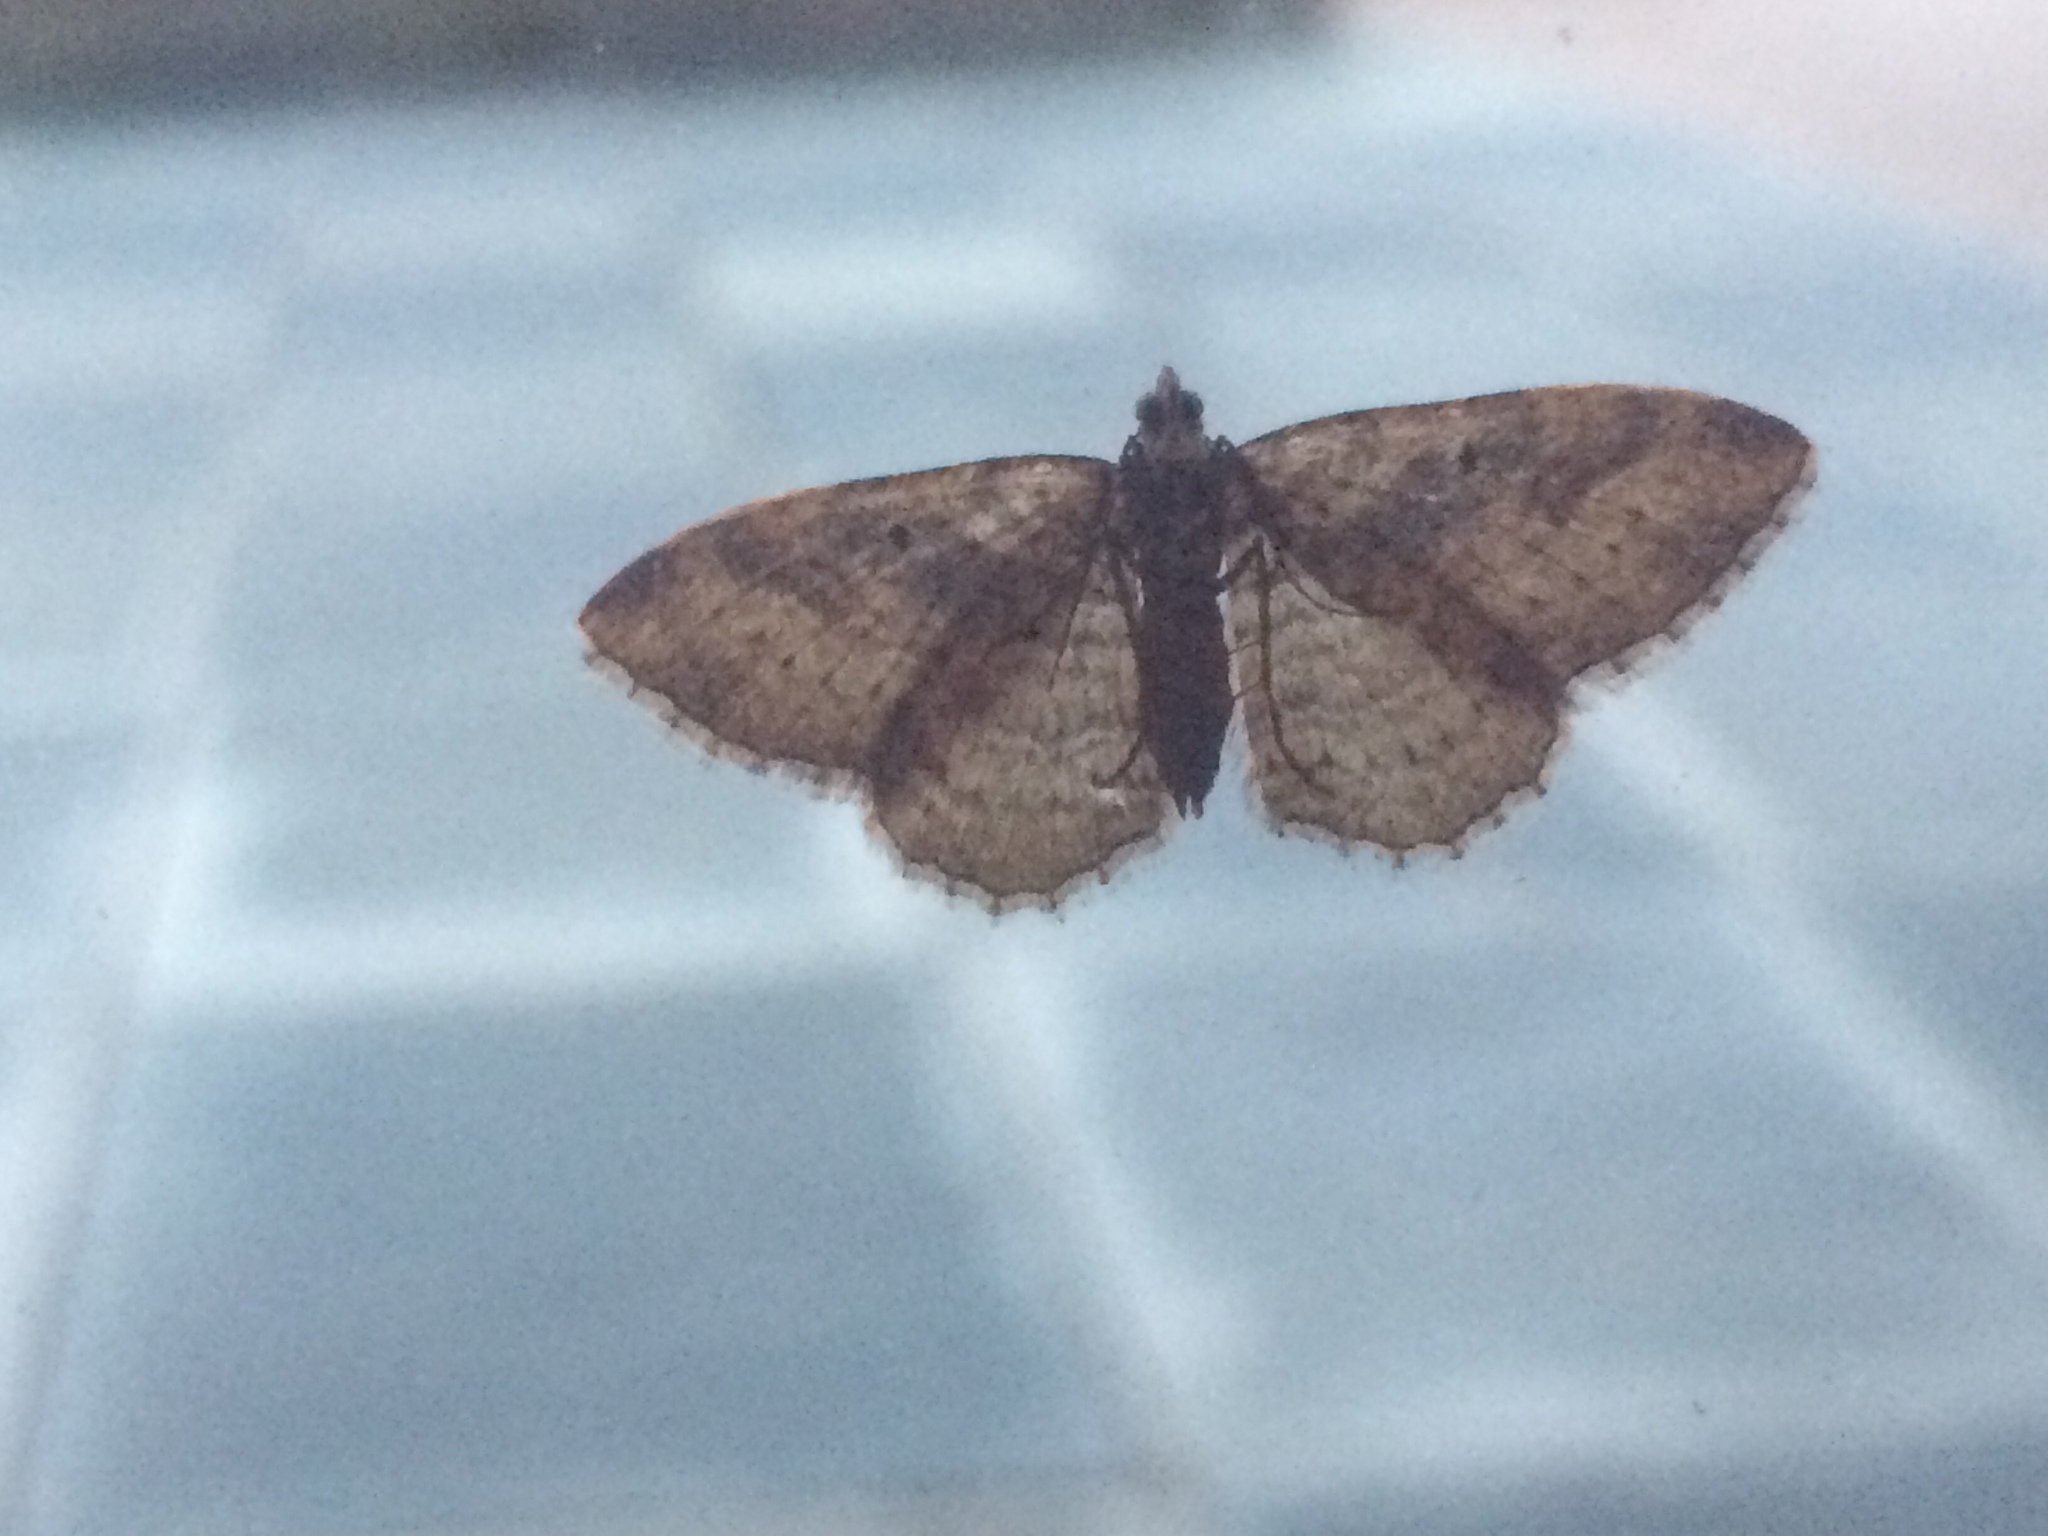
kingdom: Animalia
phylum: Arthropoda
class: Insecta
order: Lepidoptera
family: Geometridae
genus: Costaconvexa
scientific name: Costaconvexa centrostrigaria
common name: Bent-line carpet
